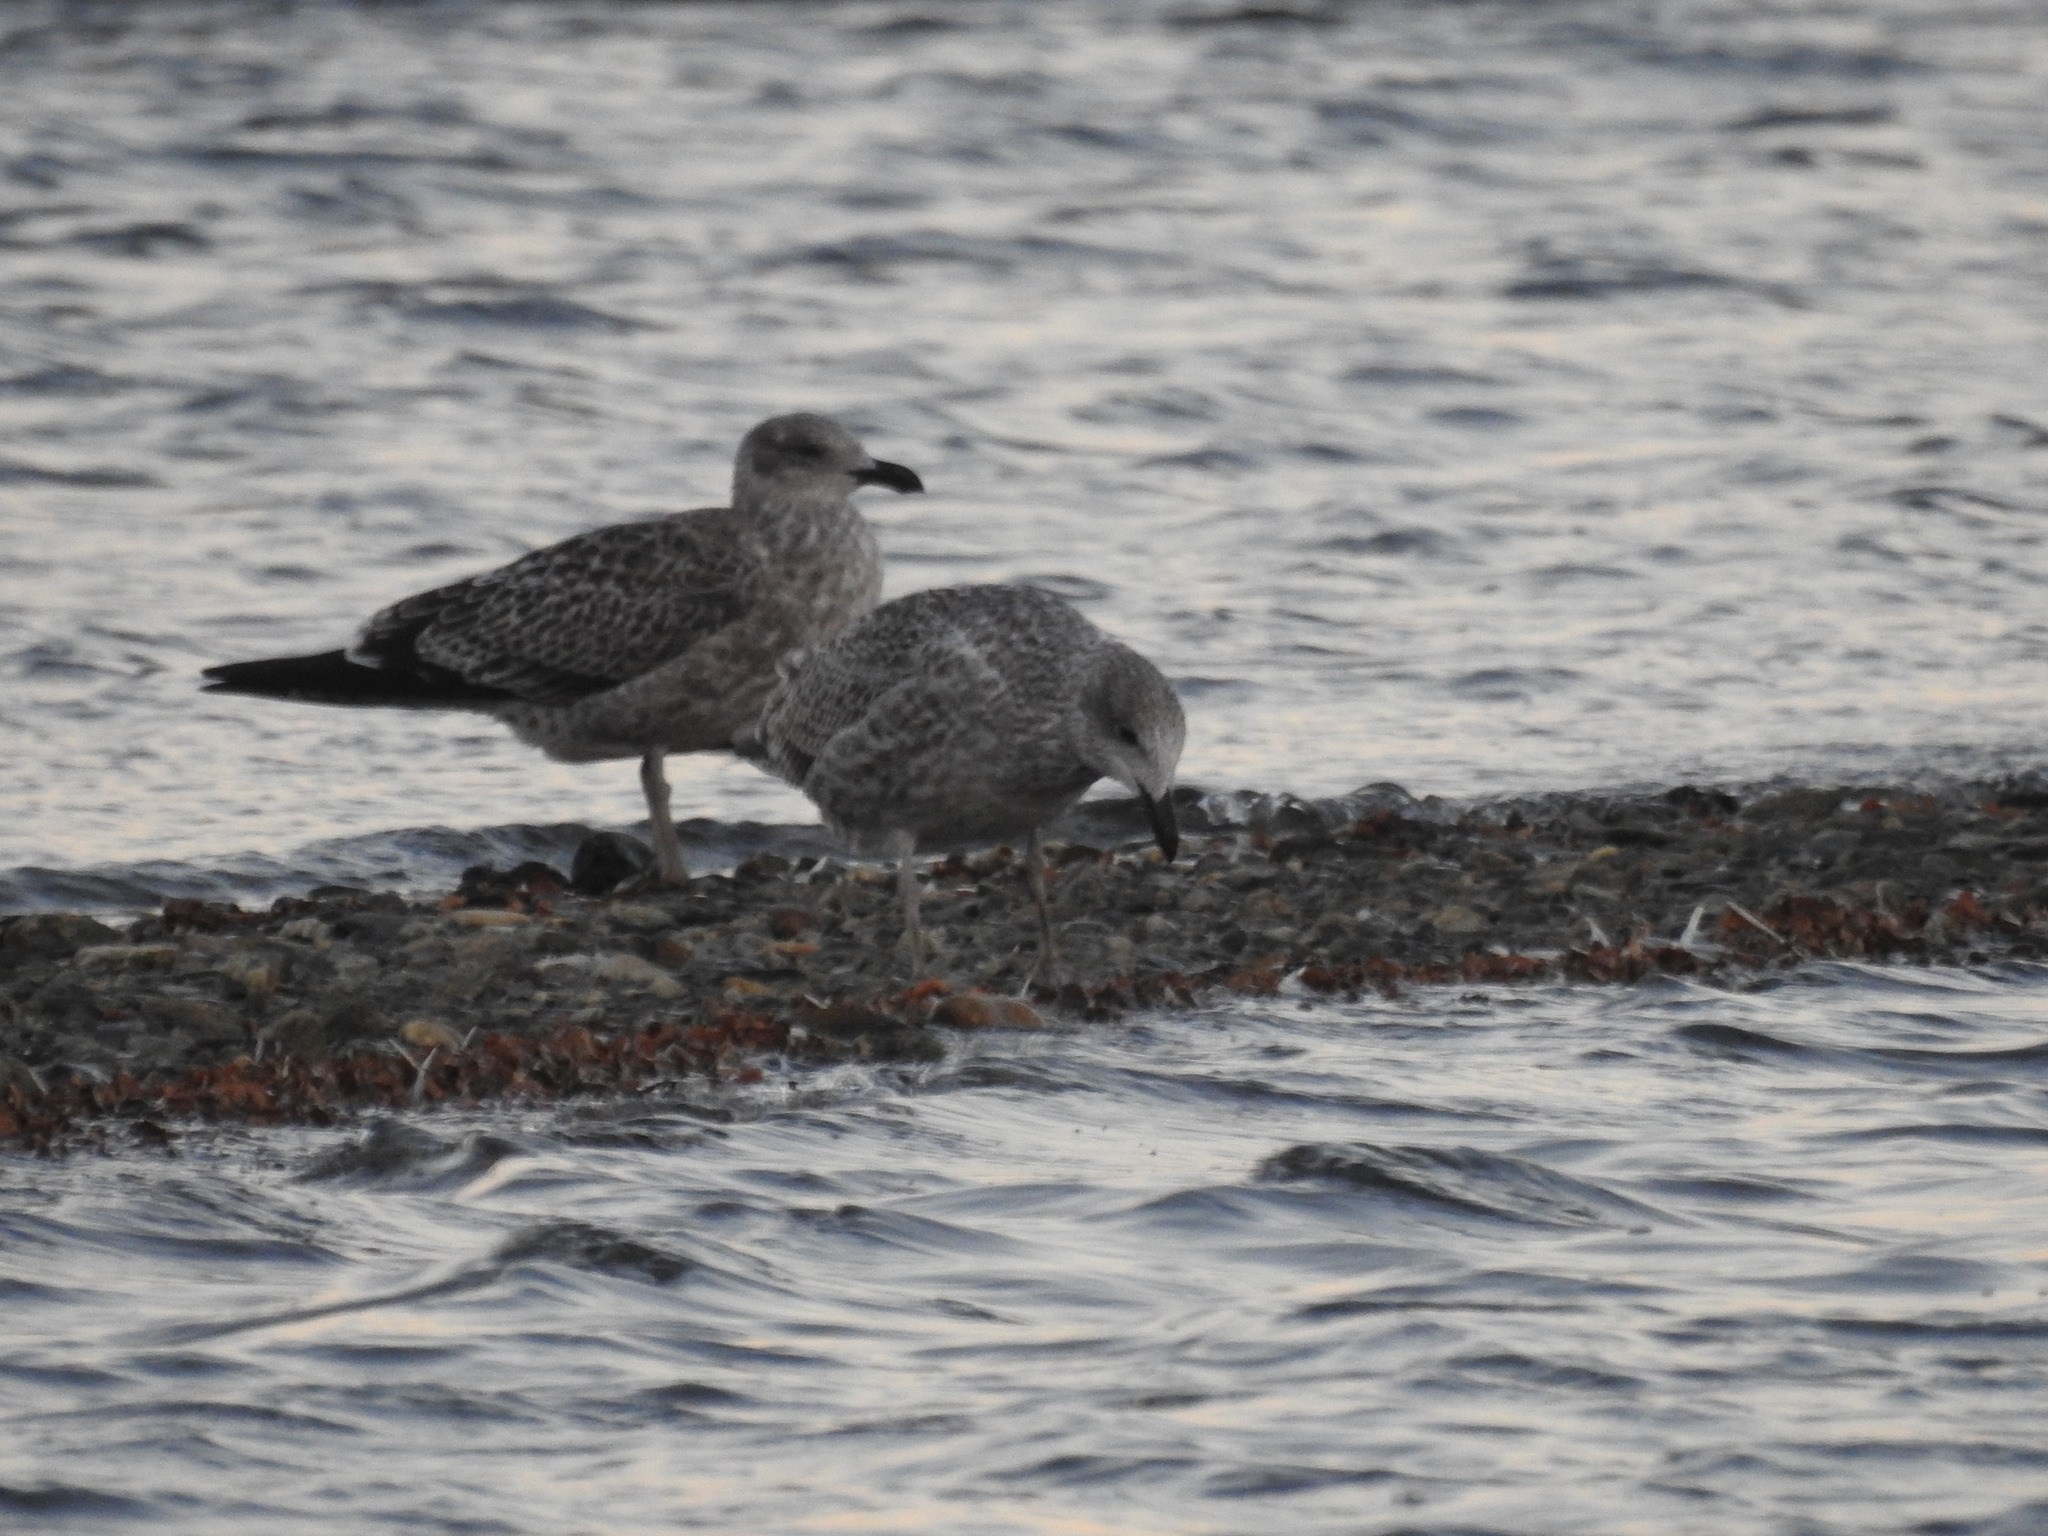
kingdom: Animalia
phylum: Chordata
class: Aves
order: Charadriiformes
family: Laridae
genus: Larus
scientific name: Larus dominicanus
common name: Kelp gull
